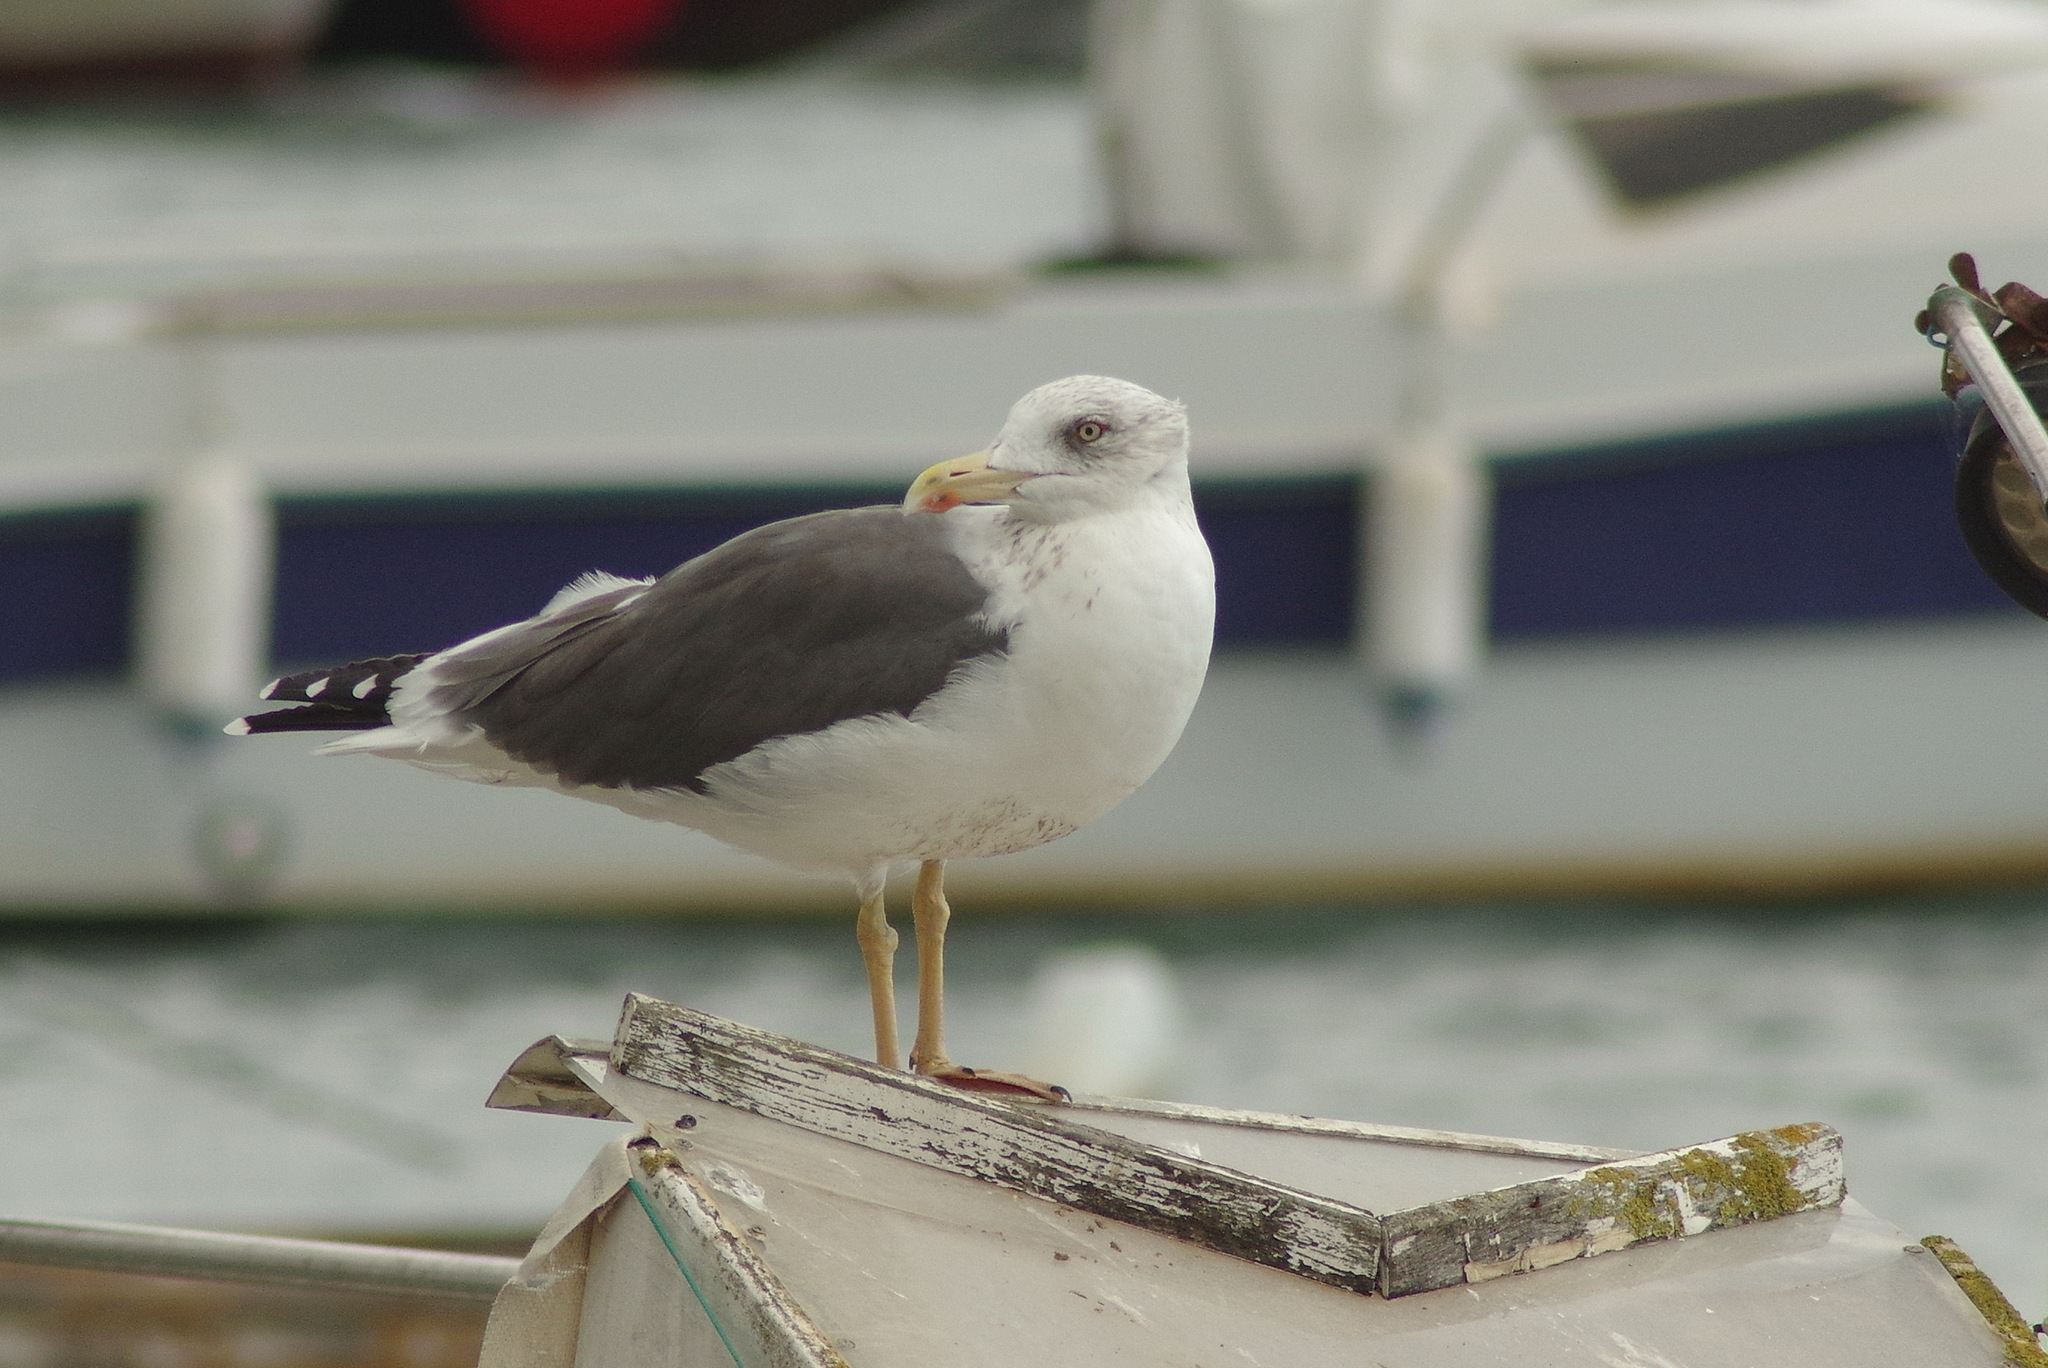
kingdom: Animalia
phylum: Chordata
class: Aves
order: Charadriiformes
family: Laridae
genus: Larus
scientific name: Larus fuscus
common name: Lesser black-backed gull
